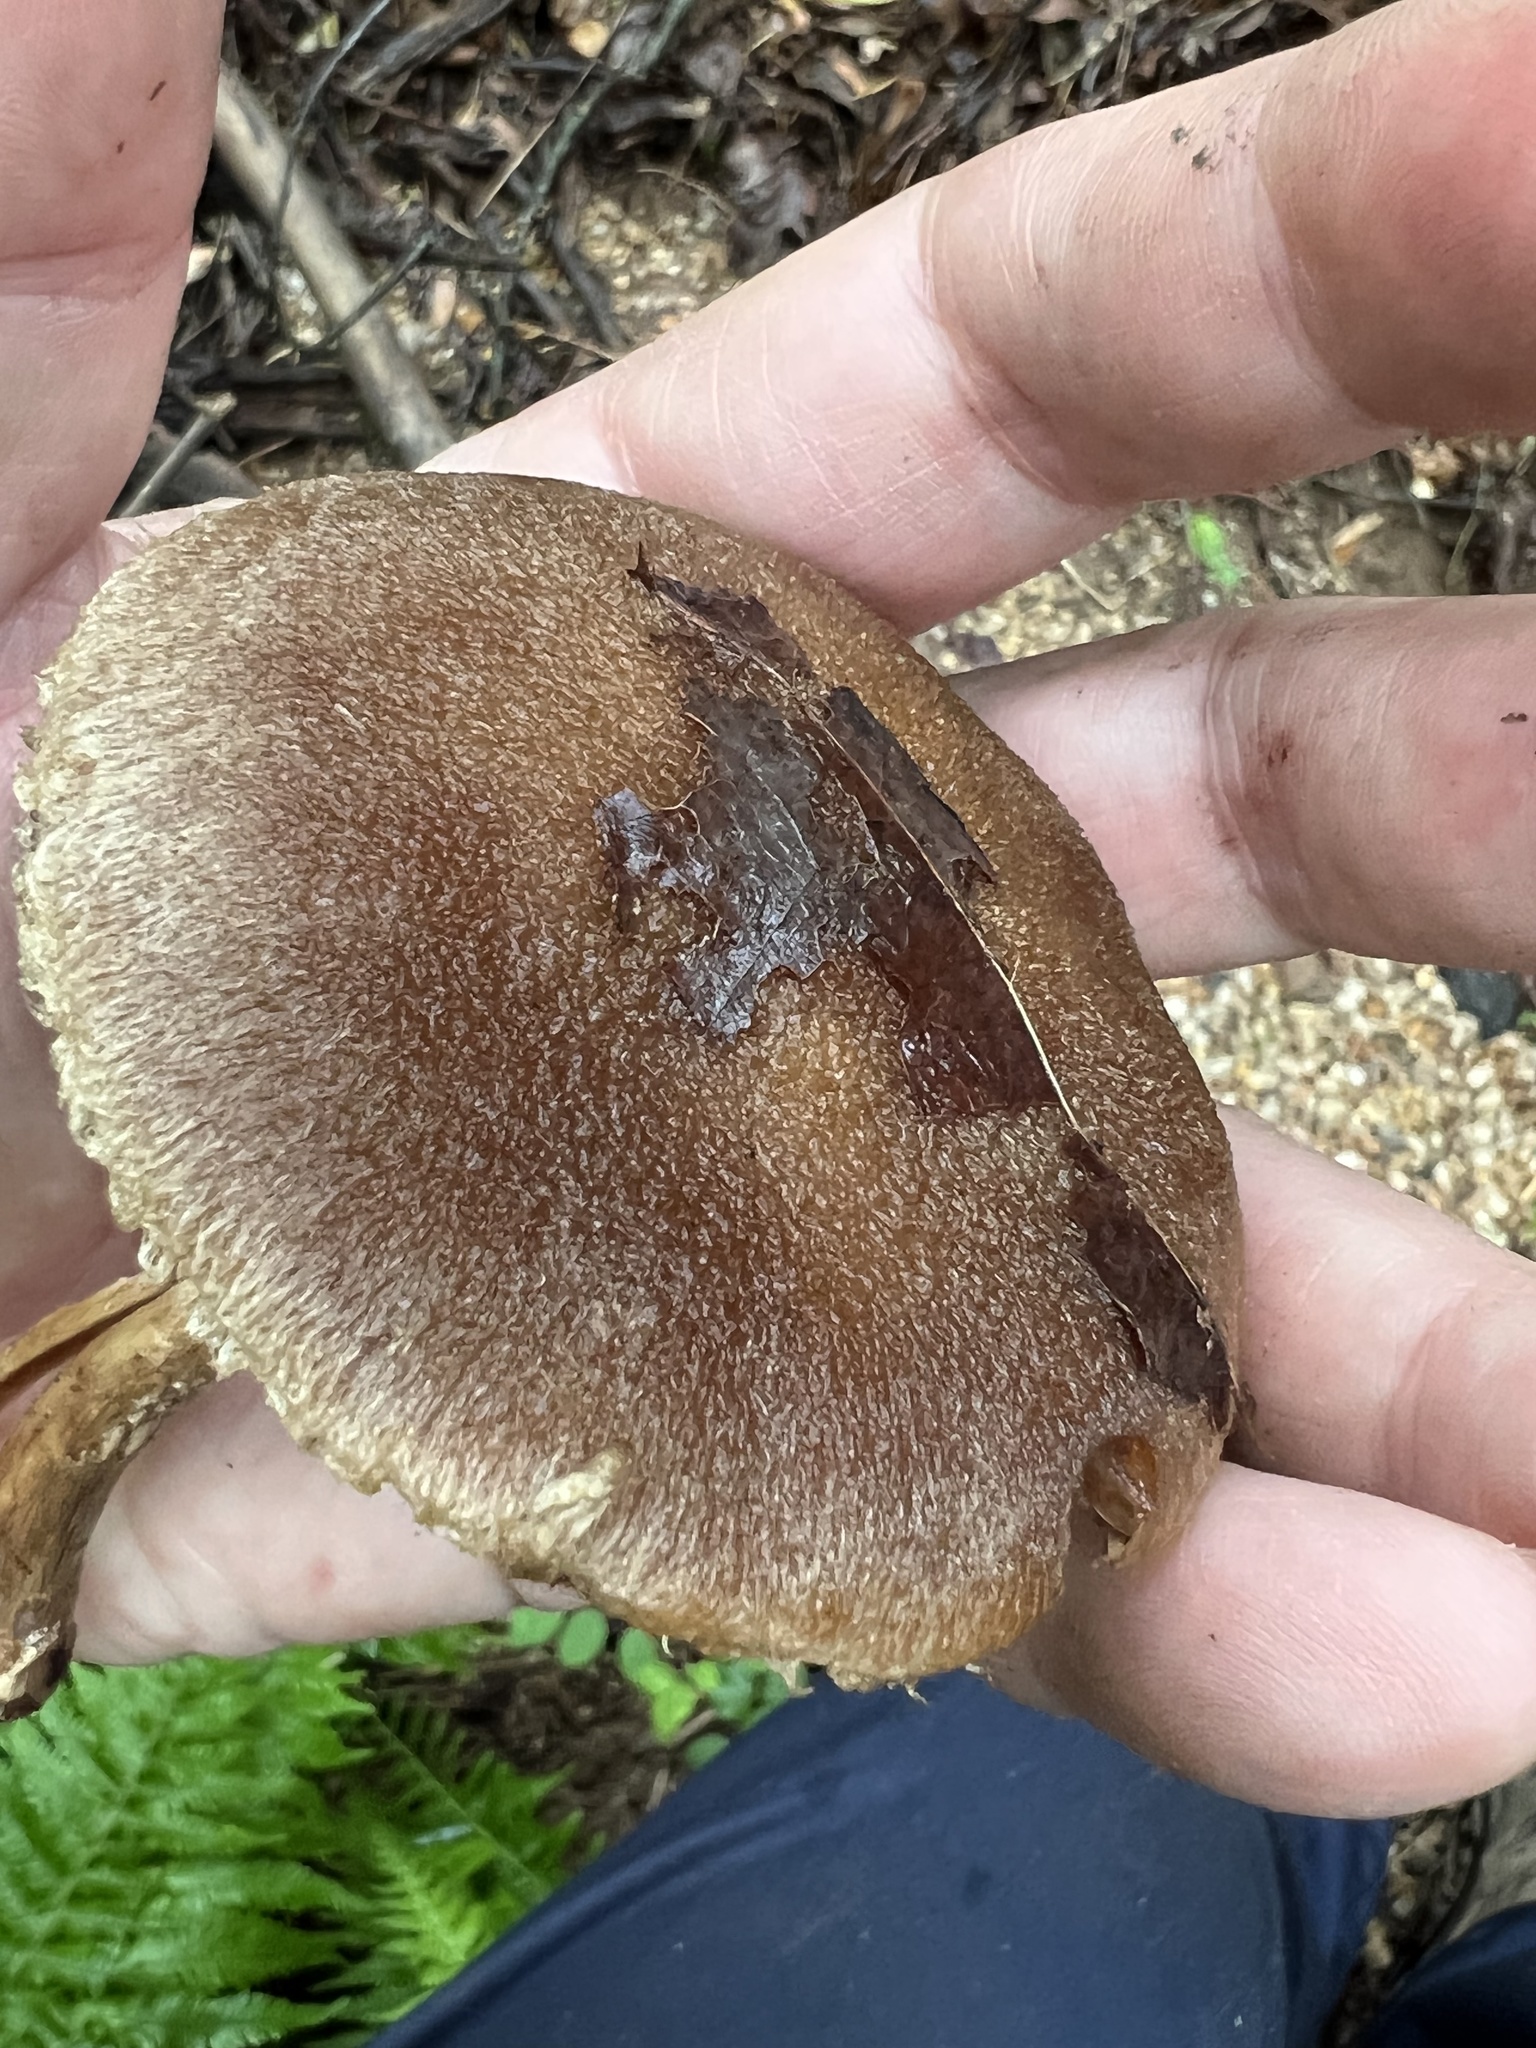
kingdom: Fungi
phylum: Basidiomycota
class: Agaricomycetes
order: Agaricales
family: Psathyrellaceae
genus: Lacrymaria
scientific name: Lacrymaria lacrymabunda
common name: Weeping widow
